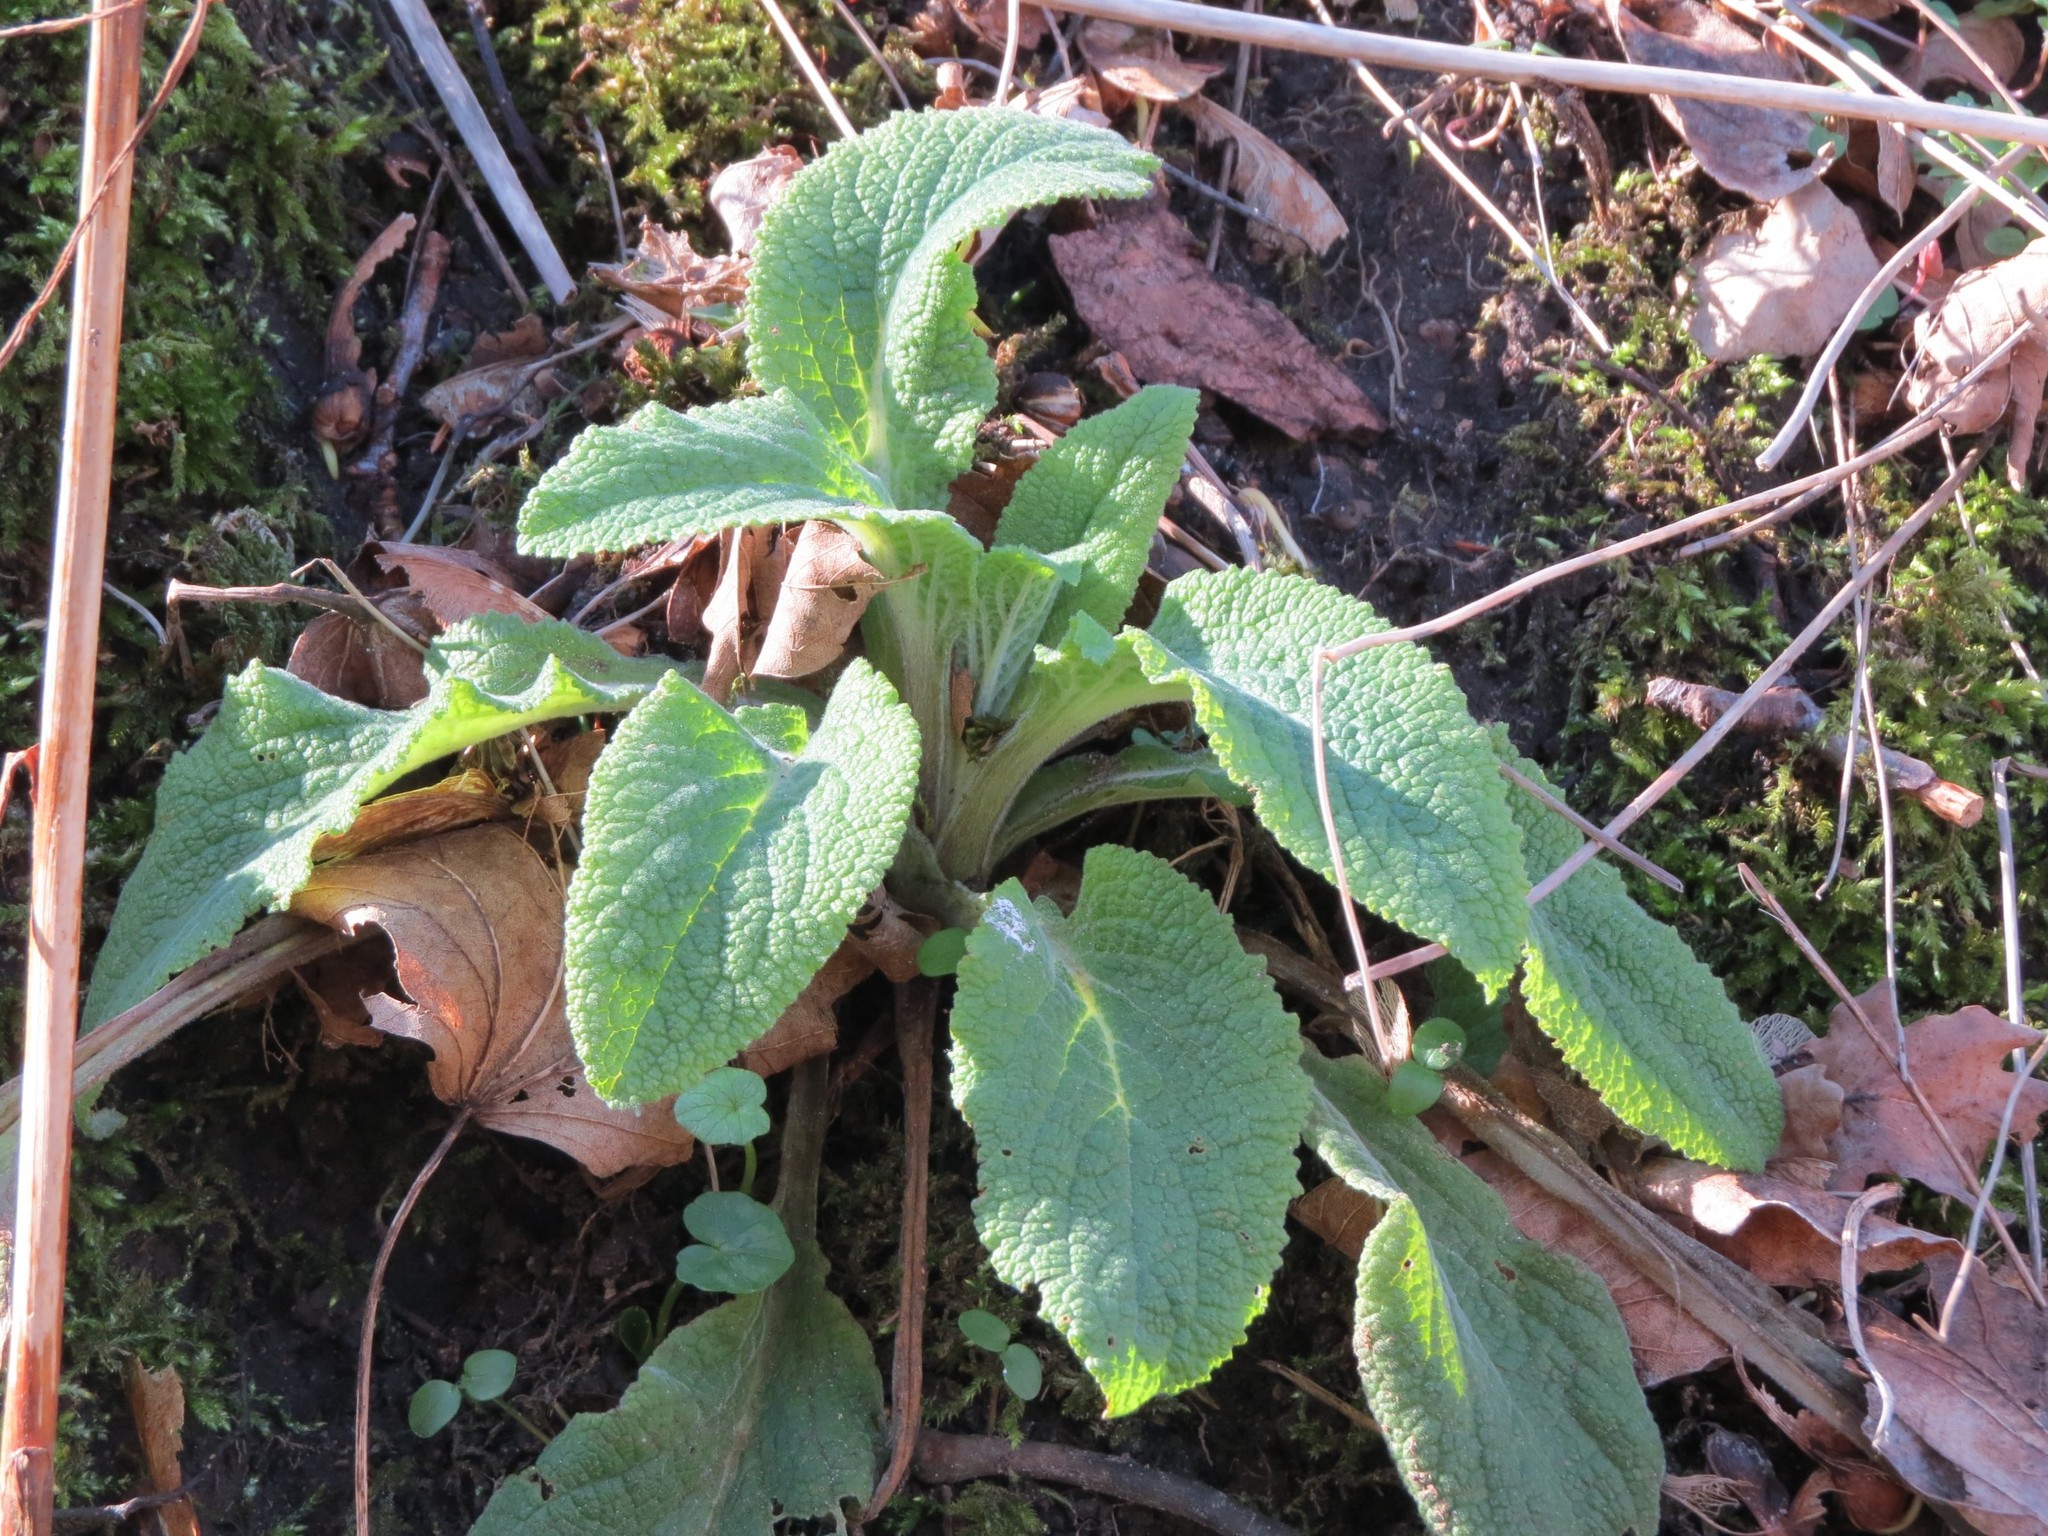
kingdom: Plantae
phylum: Tracheophyta
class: Magnoliopsida
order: Lamiales
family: Plantaginaceae
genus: Digitalis
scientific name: Digitalis purpurea
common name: Foxglove
